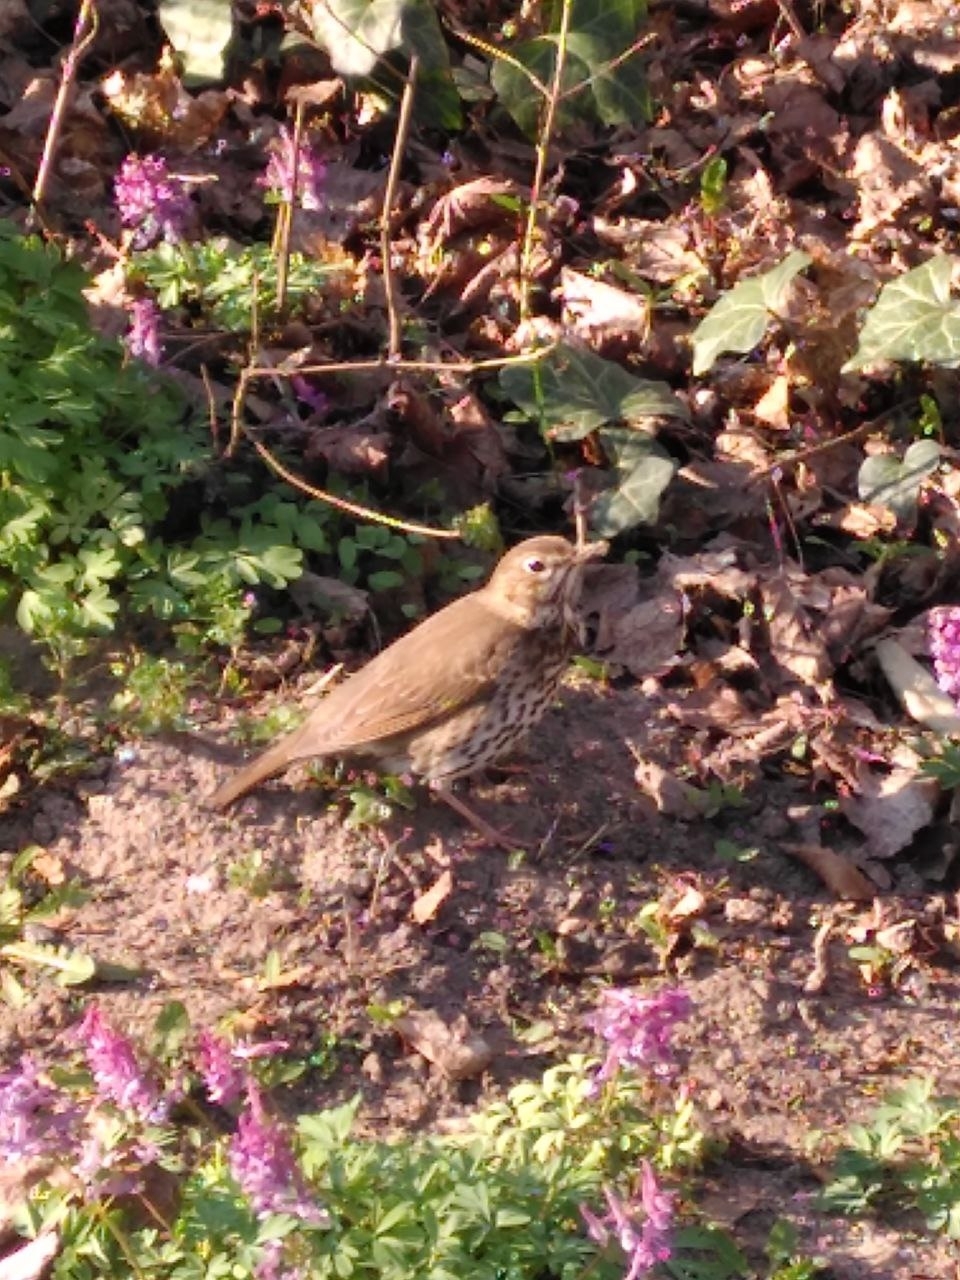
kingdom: Animalia
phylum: Chordata
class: Aves
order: Passeriformes
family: Turdidae
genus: Turdus
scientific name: Turdus philomelos
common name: Song thrush
